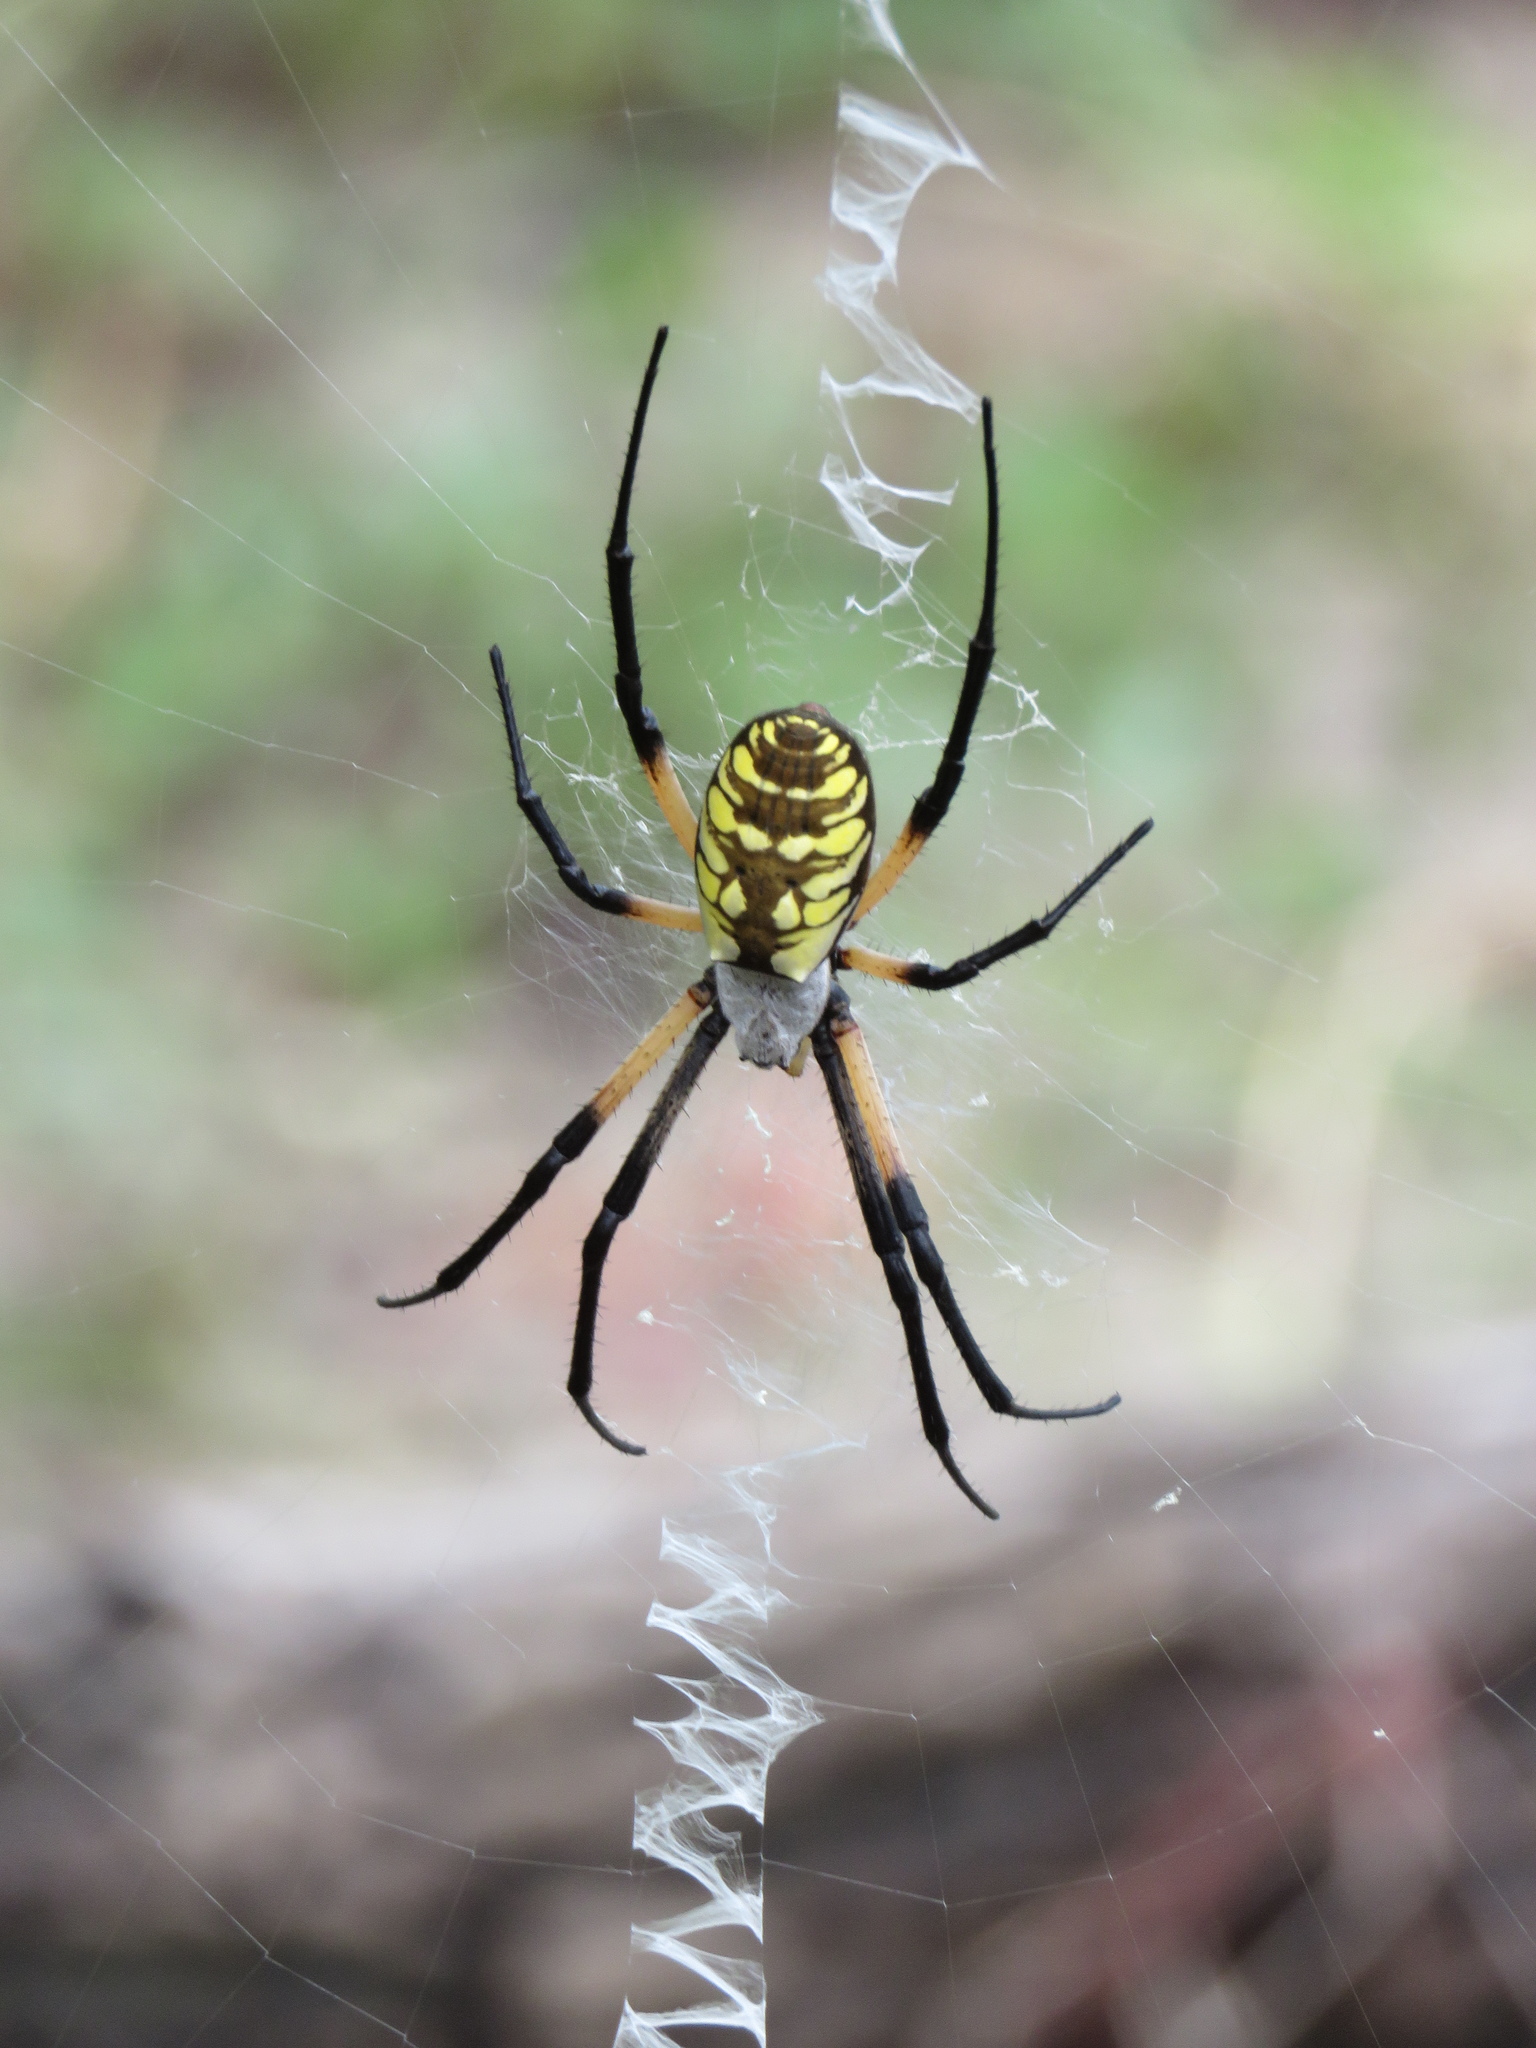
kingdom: Animalia
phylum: Arthropoda
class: Arachnida
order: Araneae
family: Araneidae
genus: Argiope
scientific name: Argiope aurantia
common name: Orb weavers
